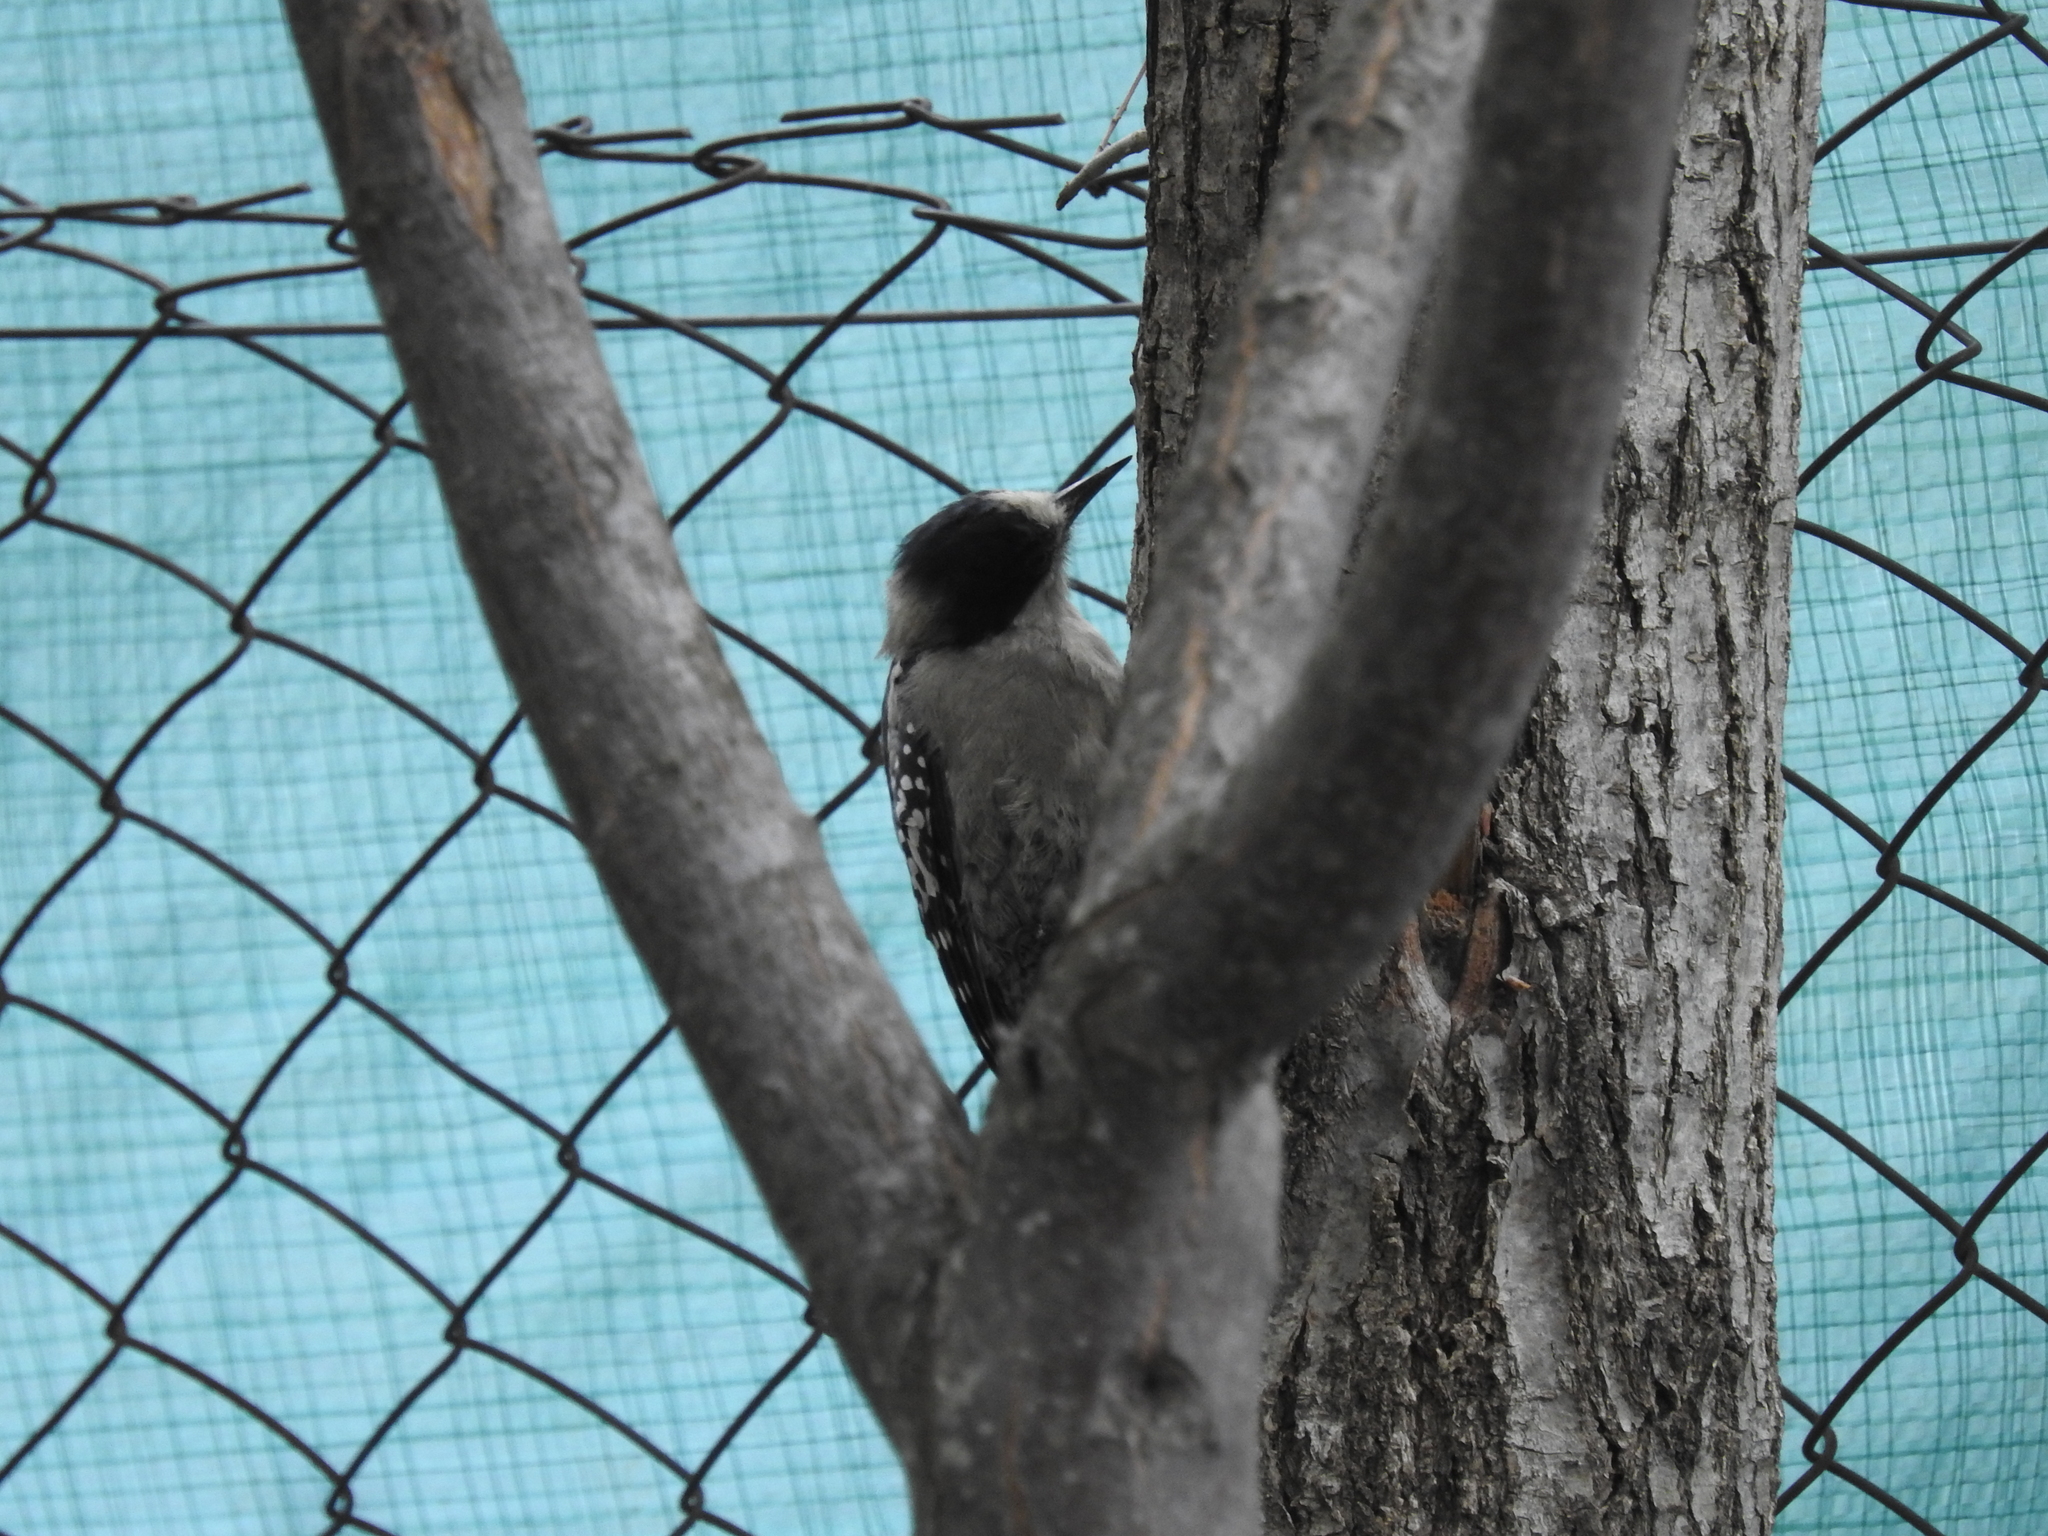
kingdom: Animalia
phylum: Chordata
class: Aves
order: Piciformes
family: Picidae
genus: Melanerpes
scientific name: Melanerpes cactorum
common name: White-fronted woodpecker
